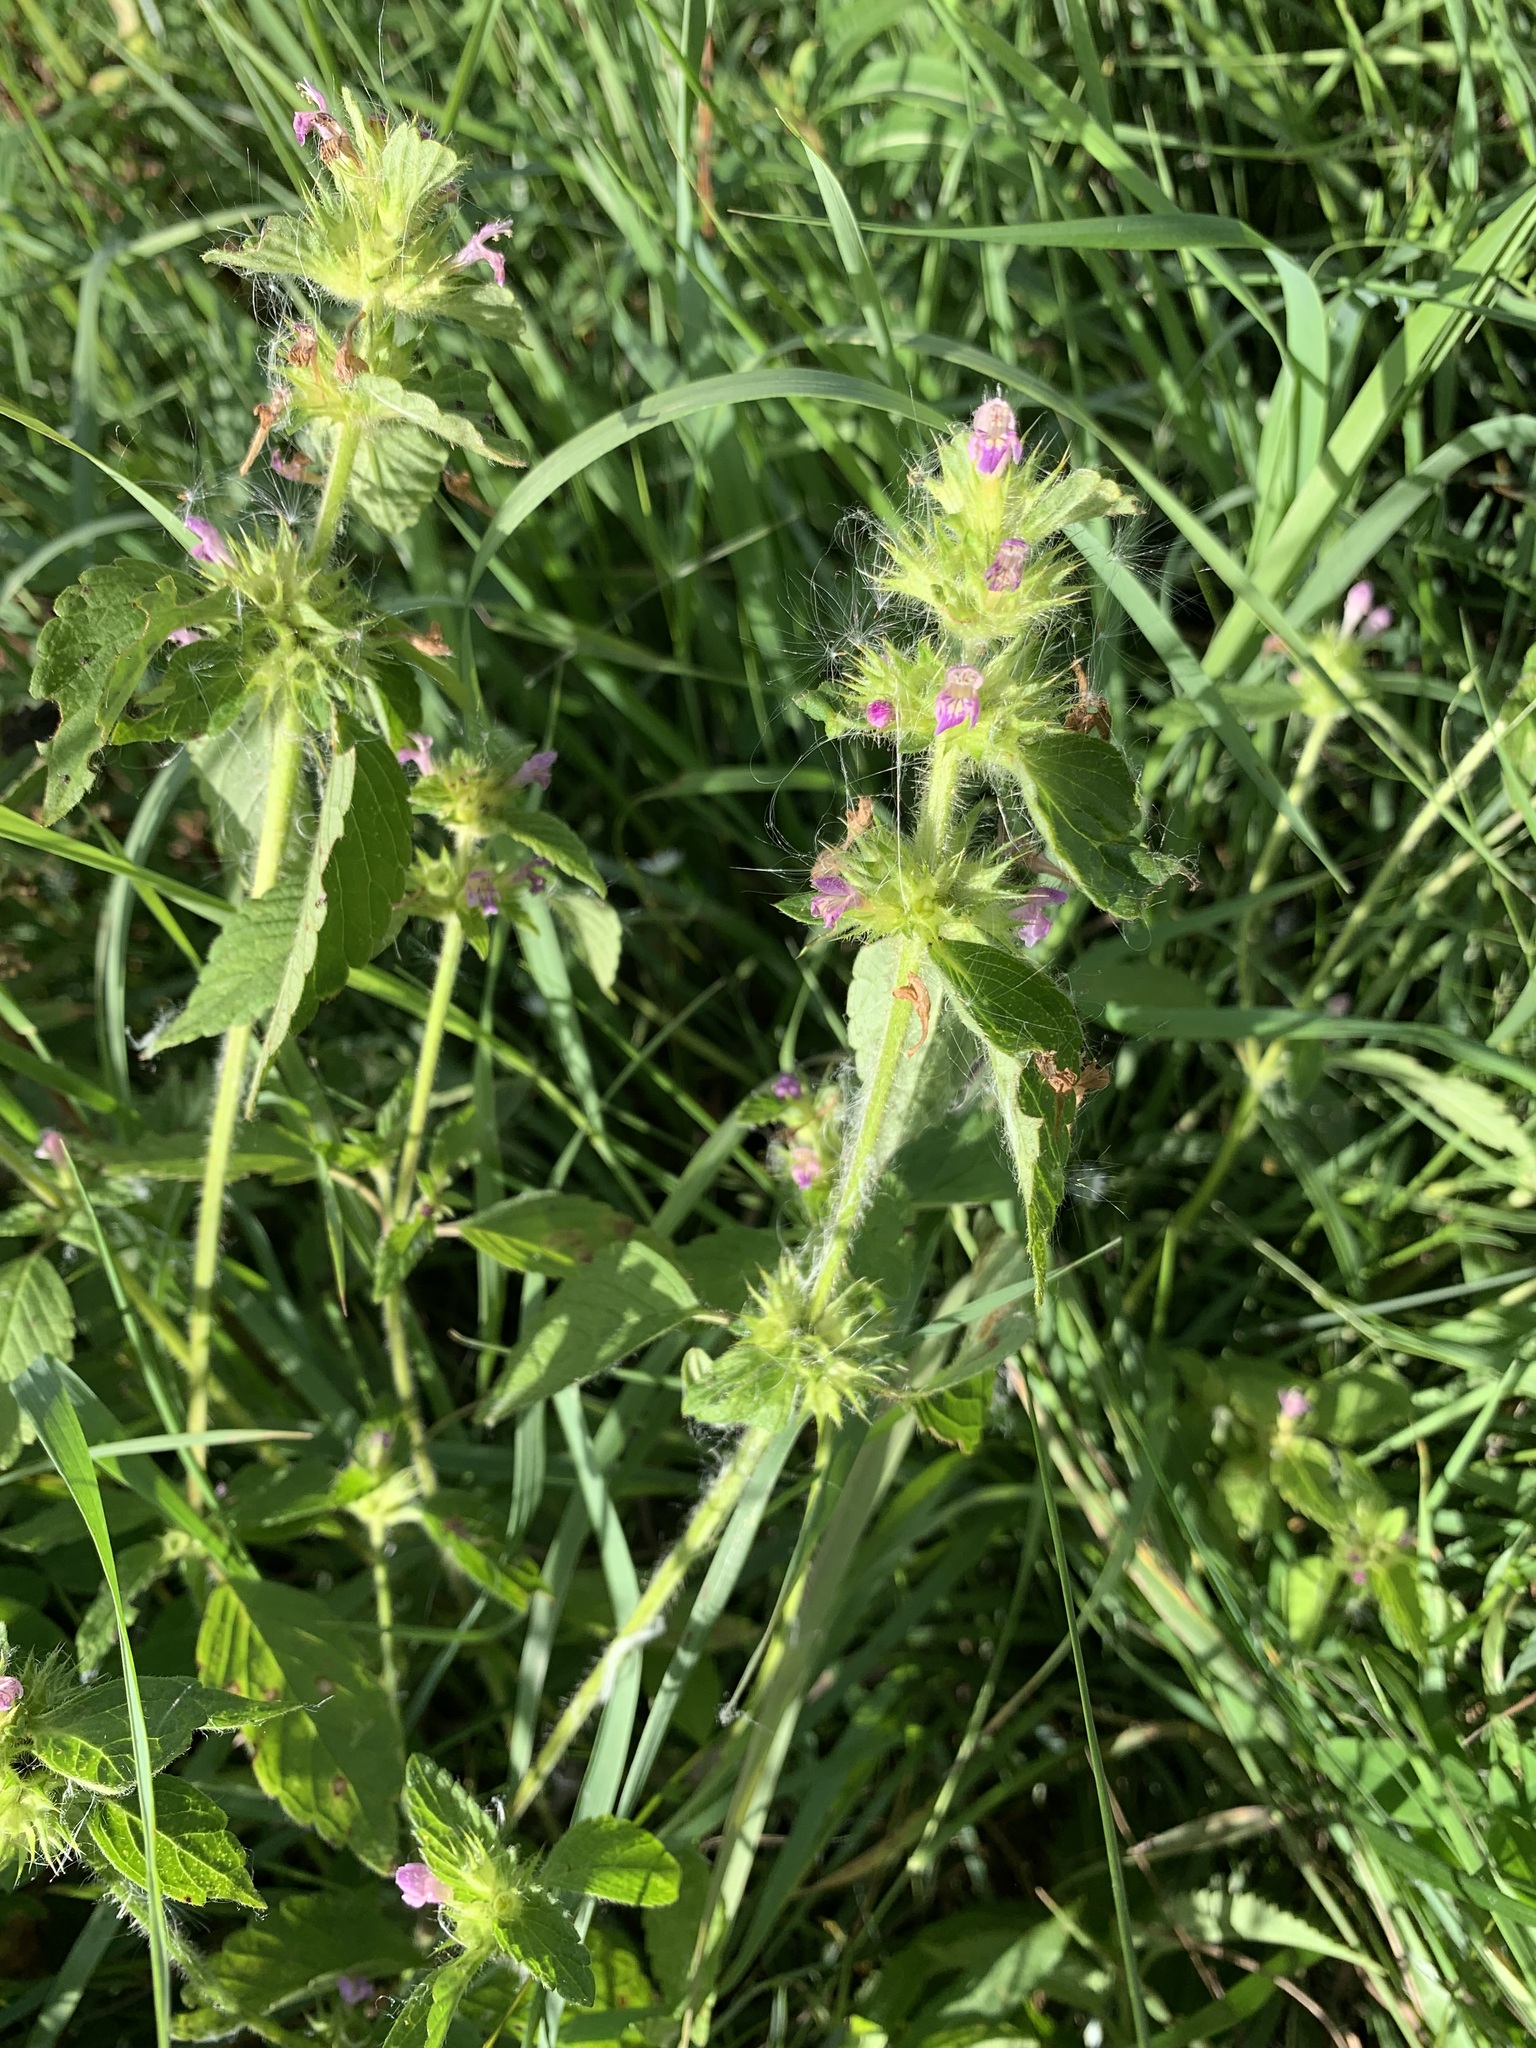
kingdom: Plantae
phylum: Tracheophyta
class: Magnoliopsida
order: Lamiales
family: Lamiaceae
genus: Galeopsis
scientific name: Galeopsis bifida
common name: Bifid hemp-nettle
